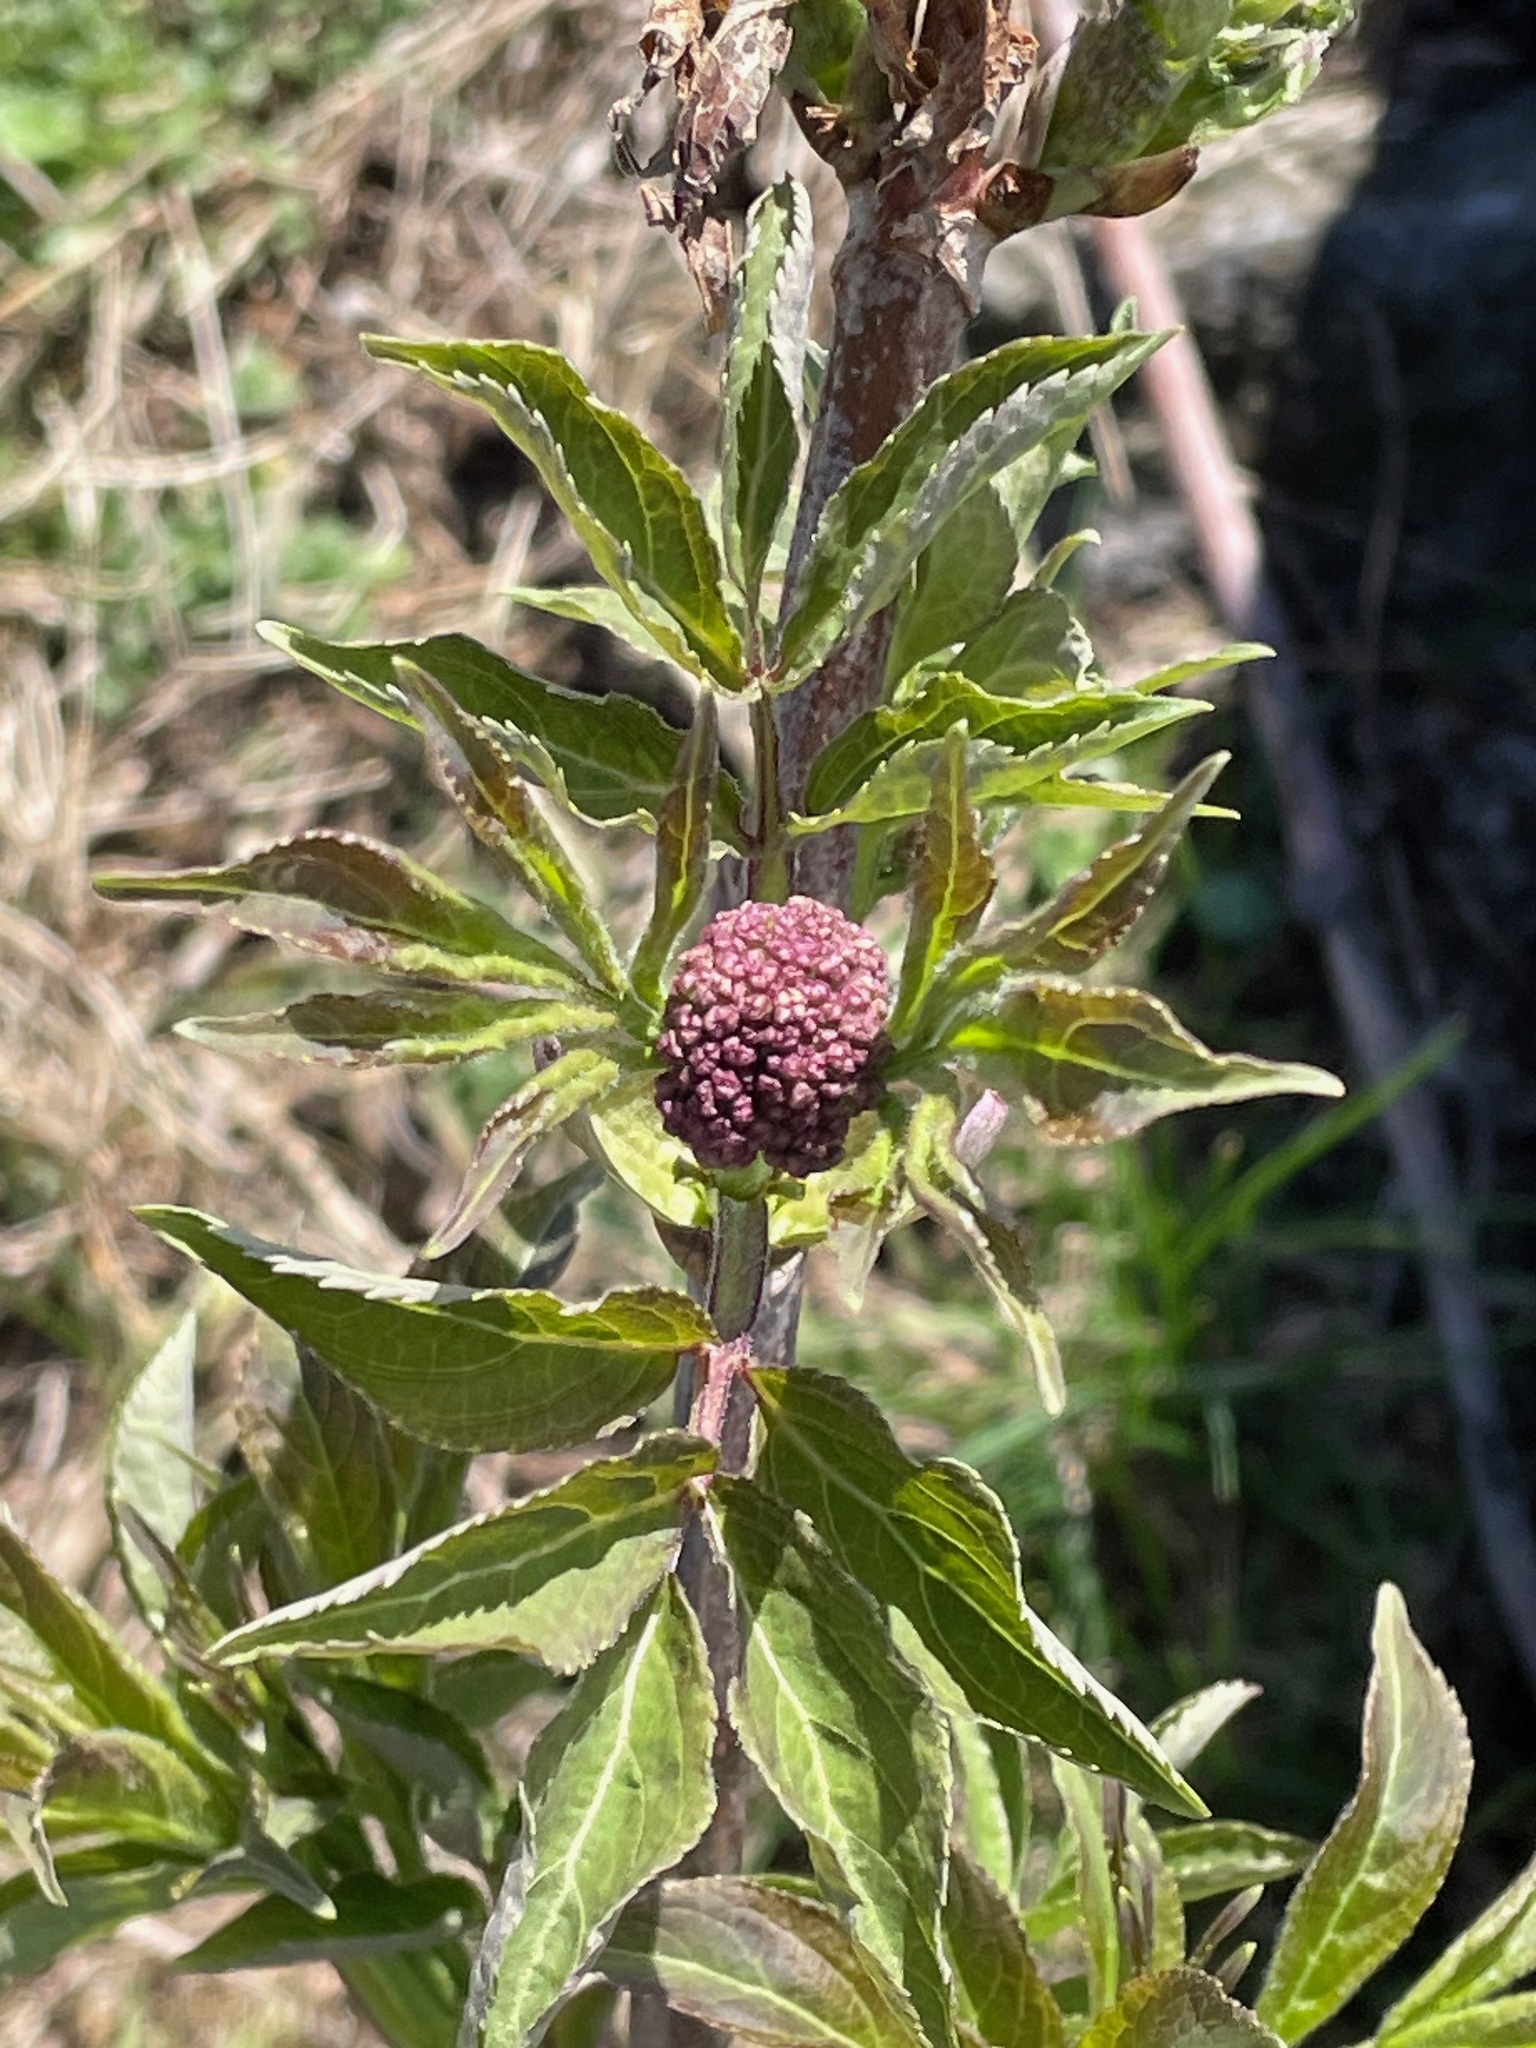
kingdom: Plantae
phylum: Tracheophyta
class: Magnoliopsida
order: Dipsacales
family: Viburnaceae
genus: Sambucus
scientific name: Sambucus racemosa
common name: Red-berried elder
